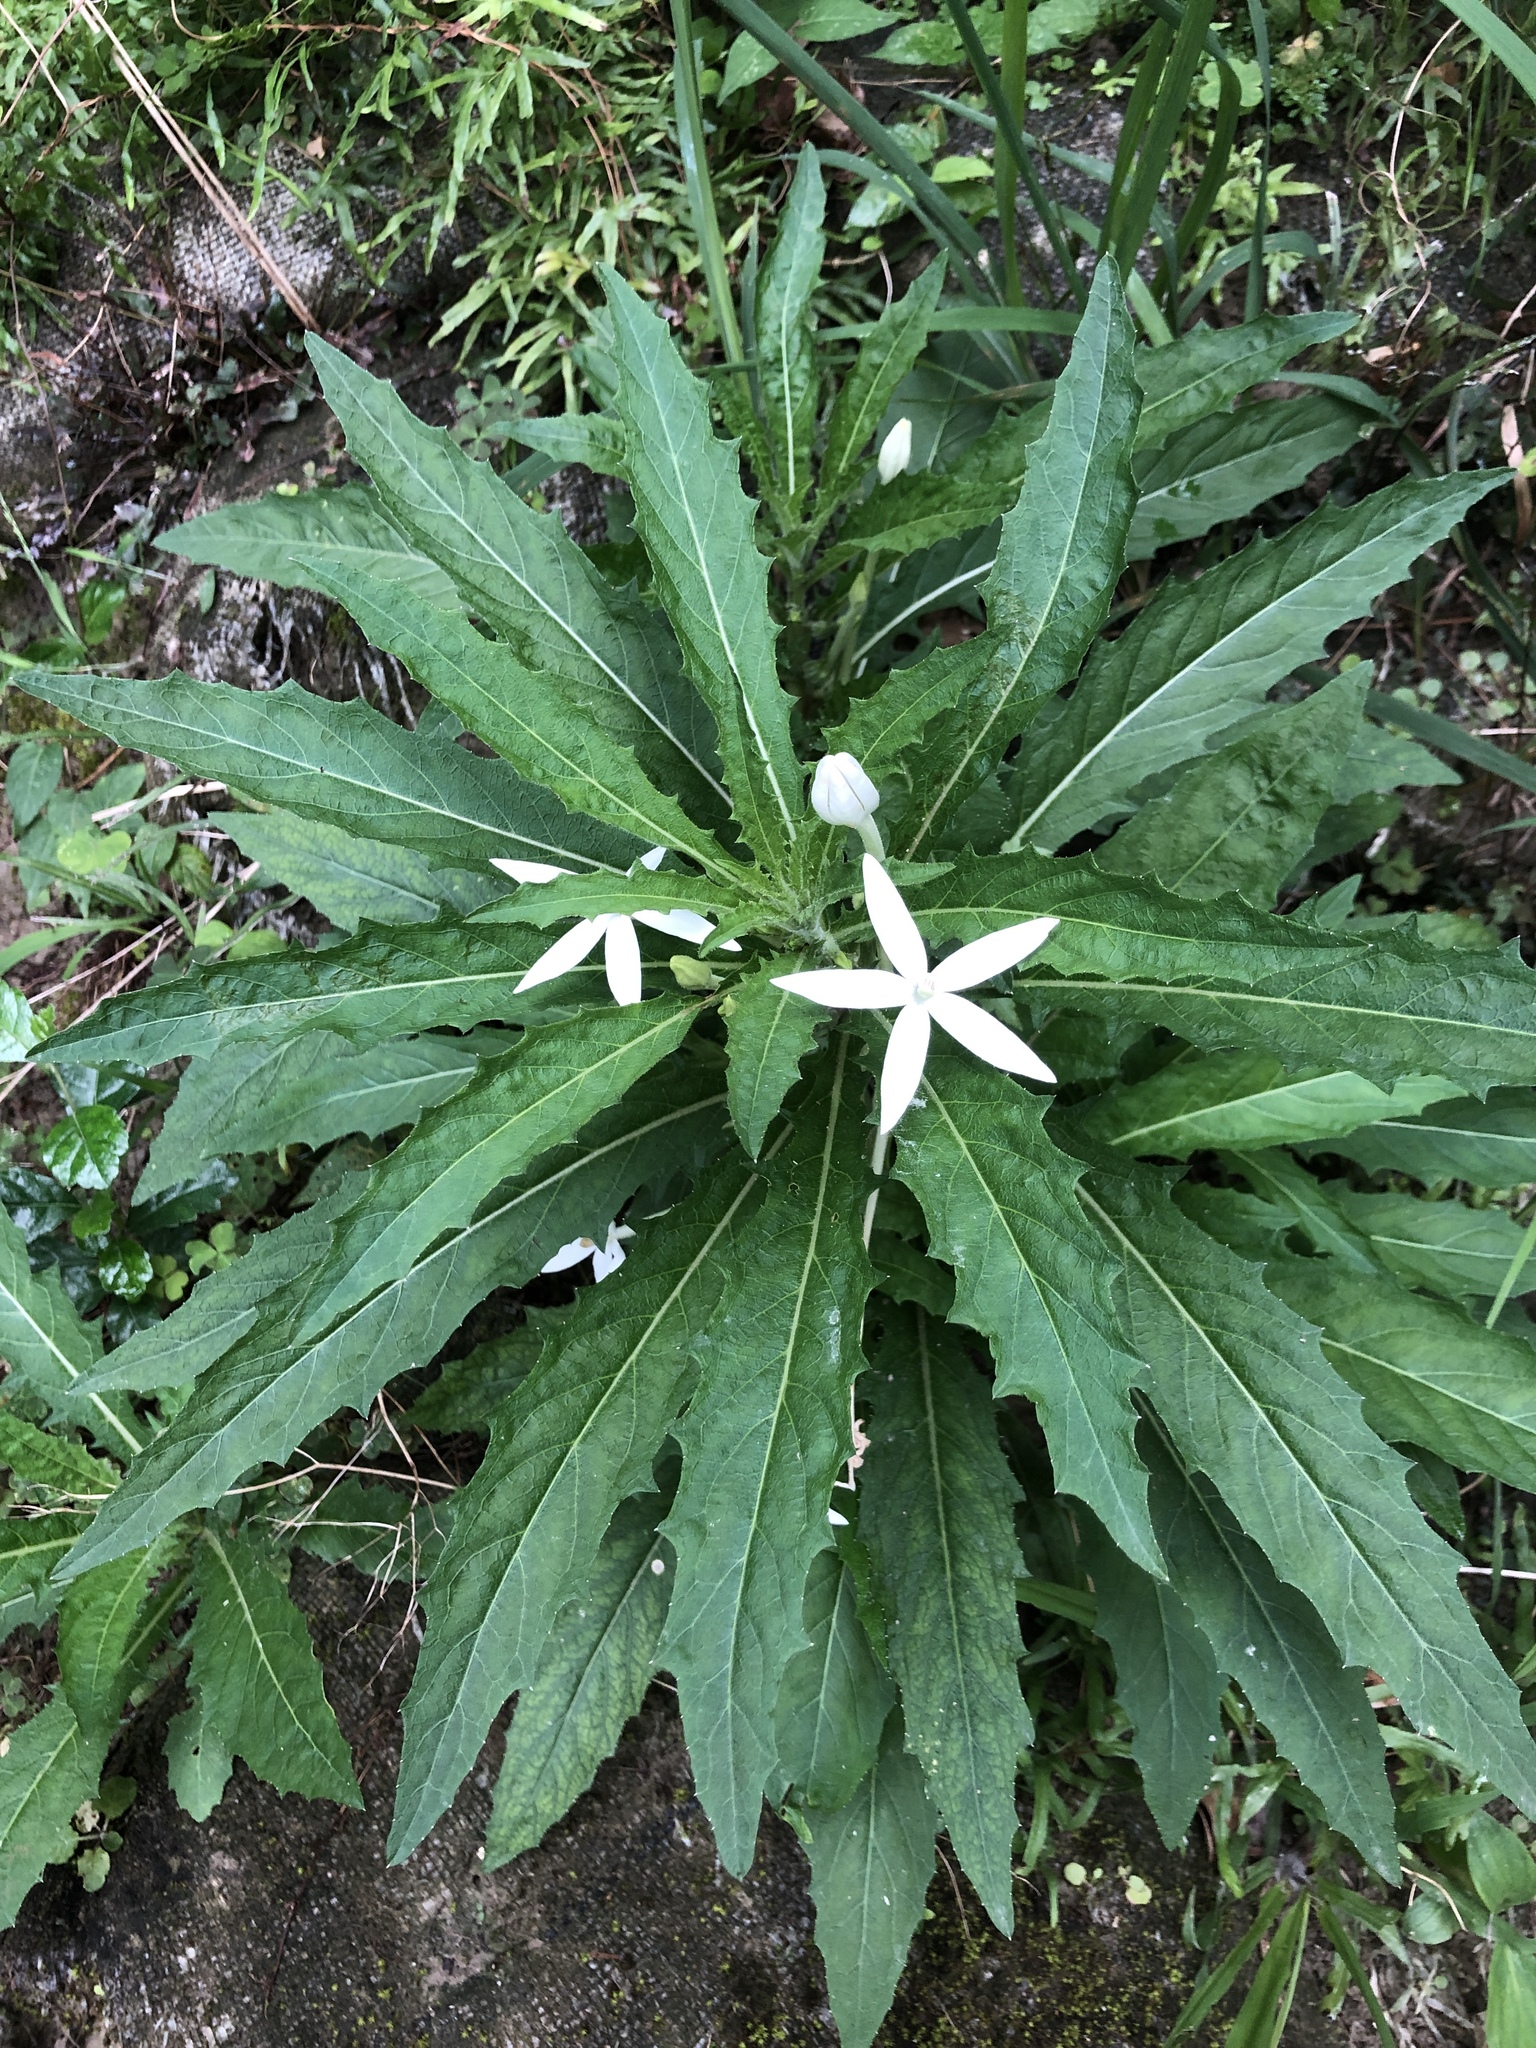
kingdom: Plantae
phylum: Tracheophyta
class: Magnoliopsida
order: Asterales
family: Campanulaceae
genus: Hippobroma
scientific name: Hippobroma longiflora
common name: Madamfate
